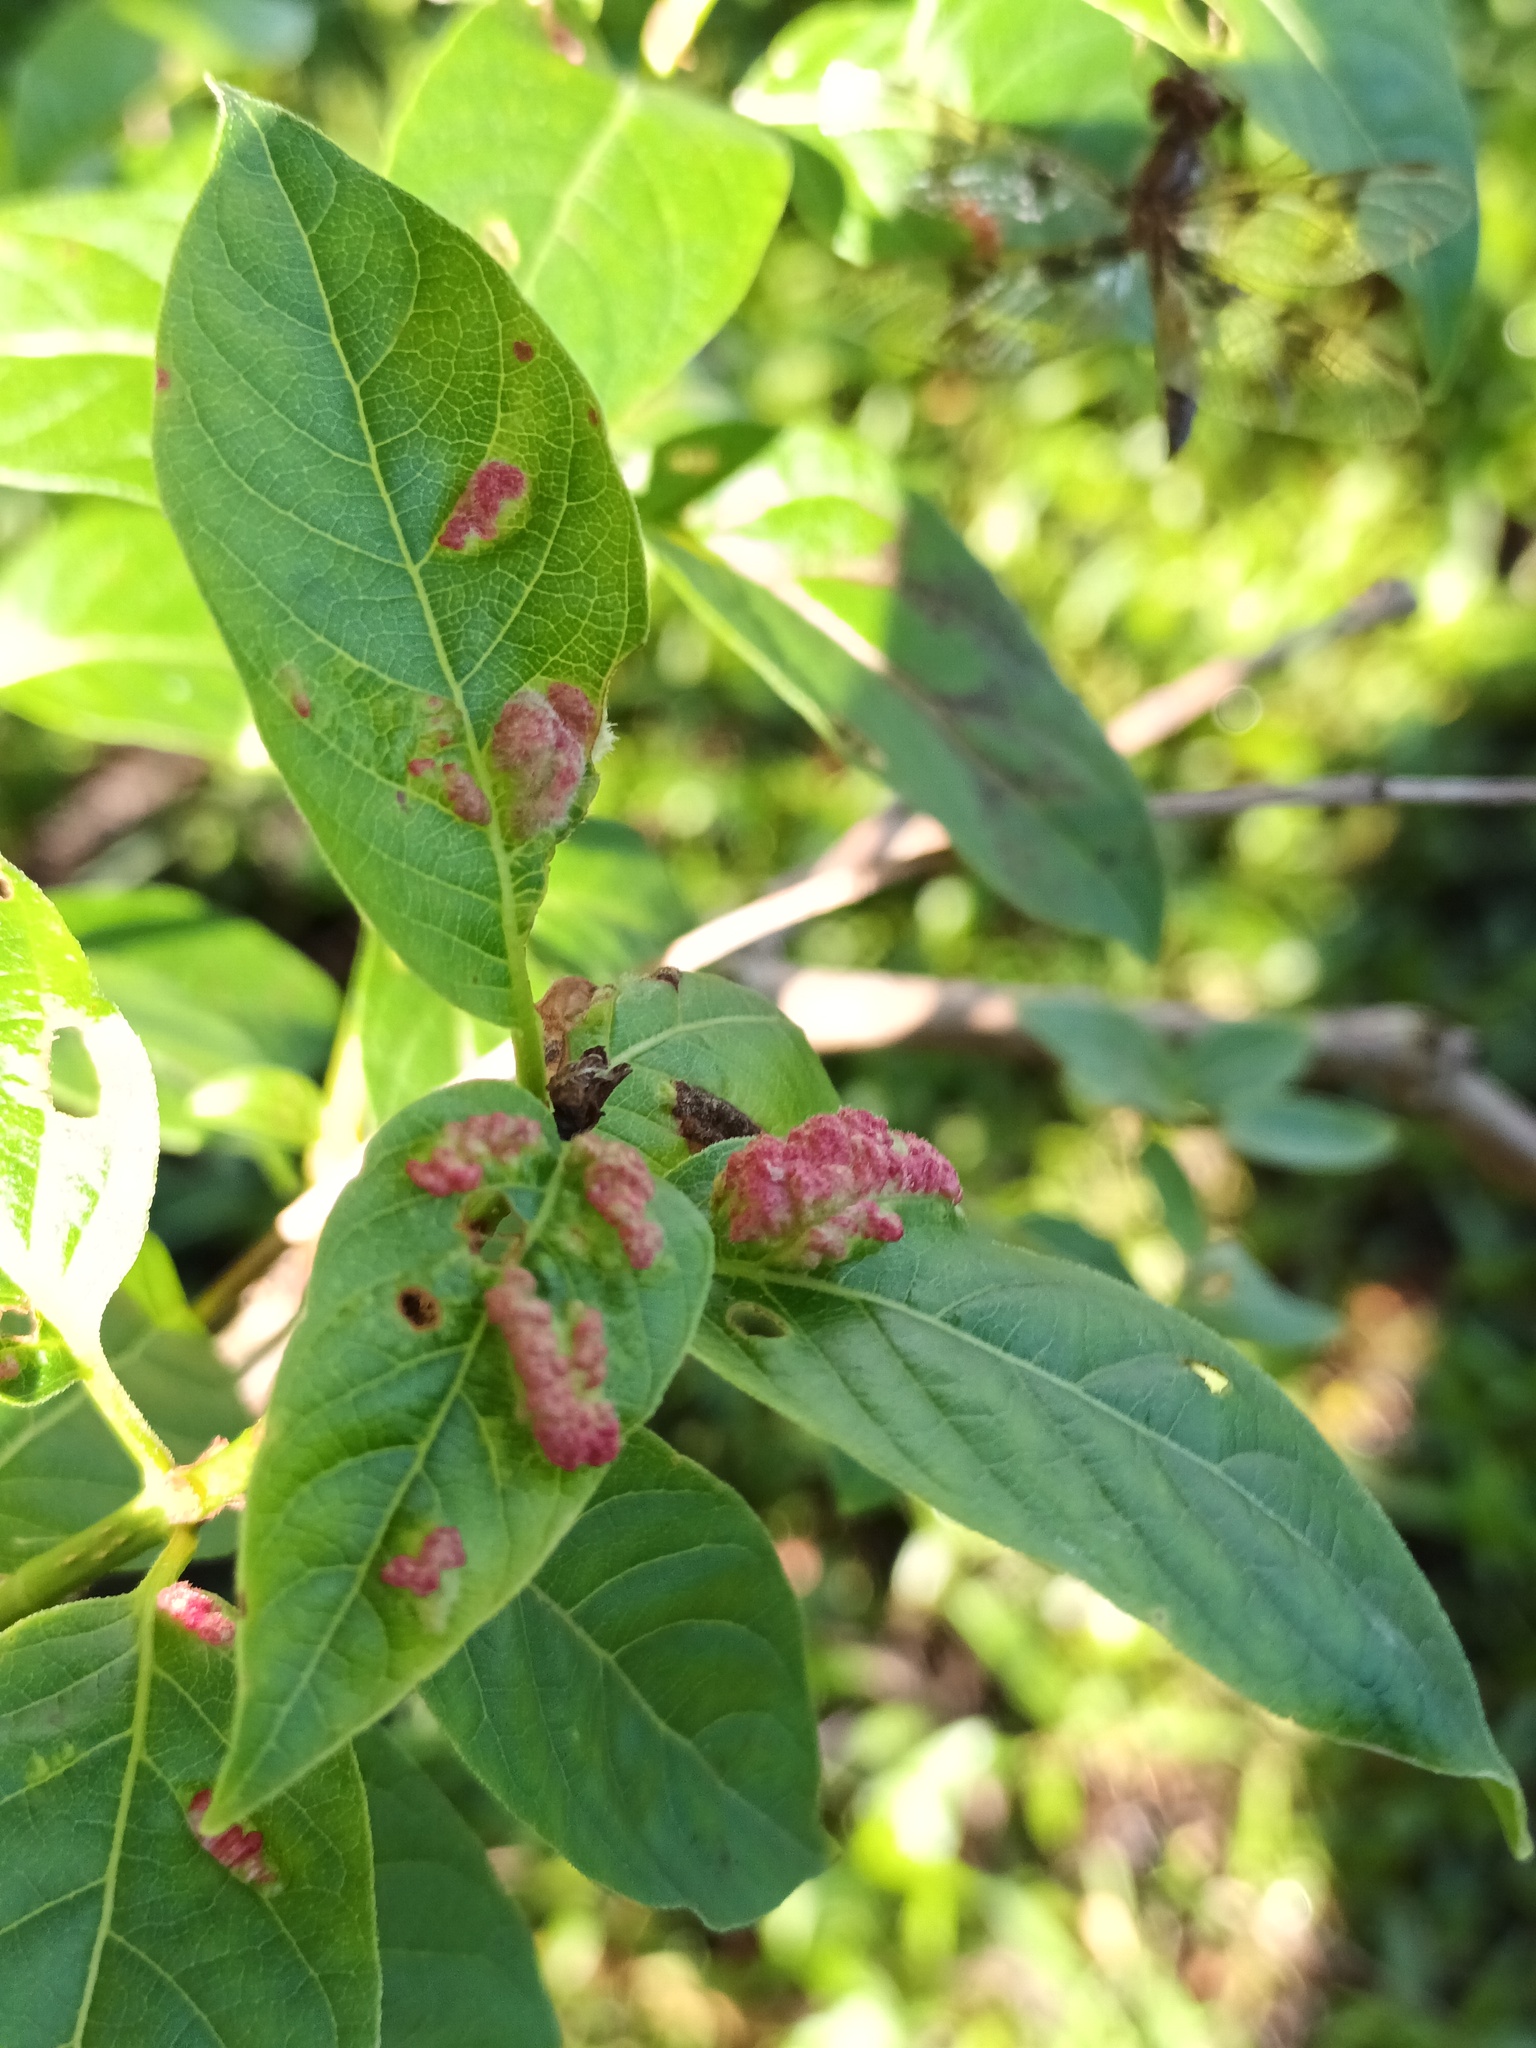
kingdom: Animalia
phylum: Arthropoda
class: Arachnida
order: Trombidiformes
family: Eriophyidae
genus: Aceria
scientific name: Aceria
